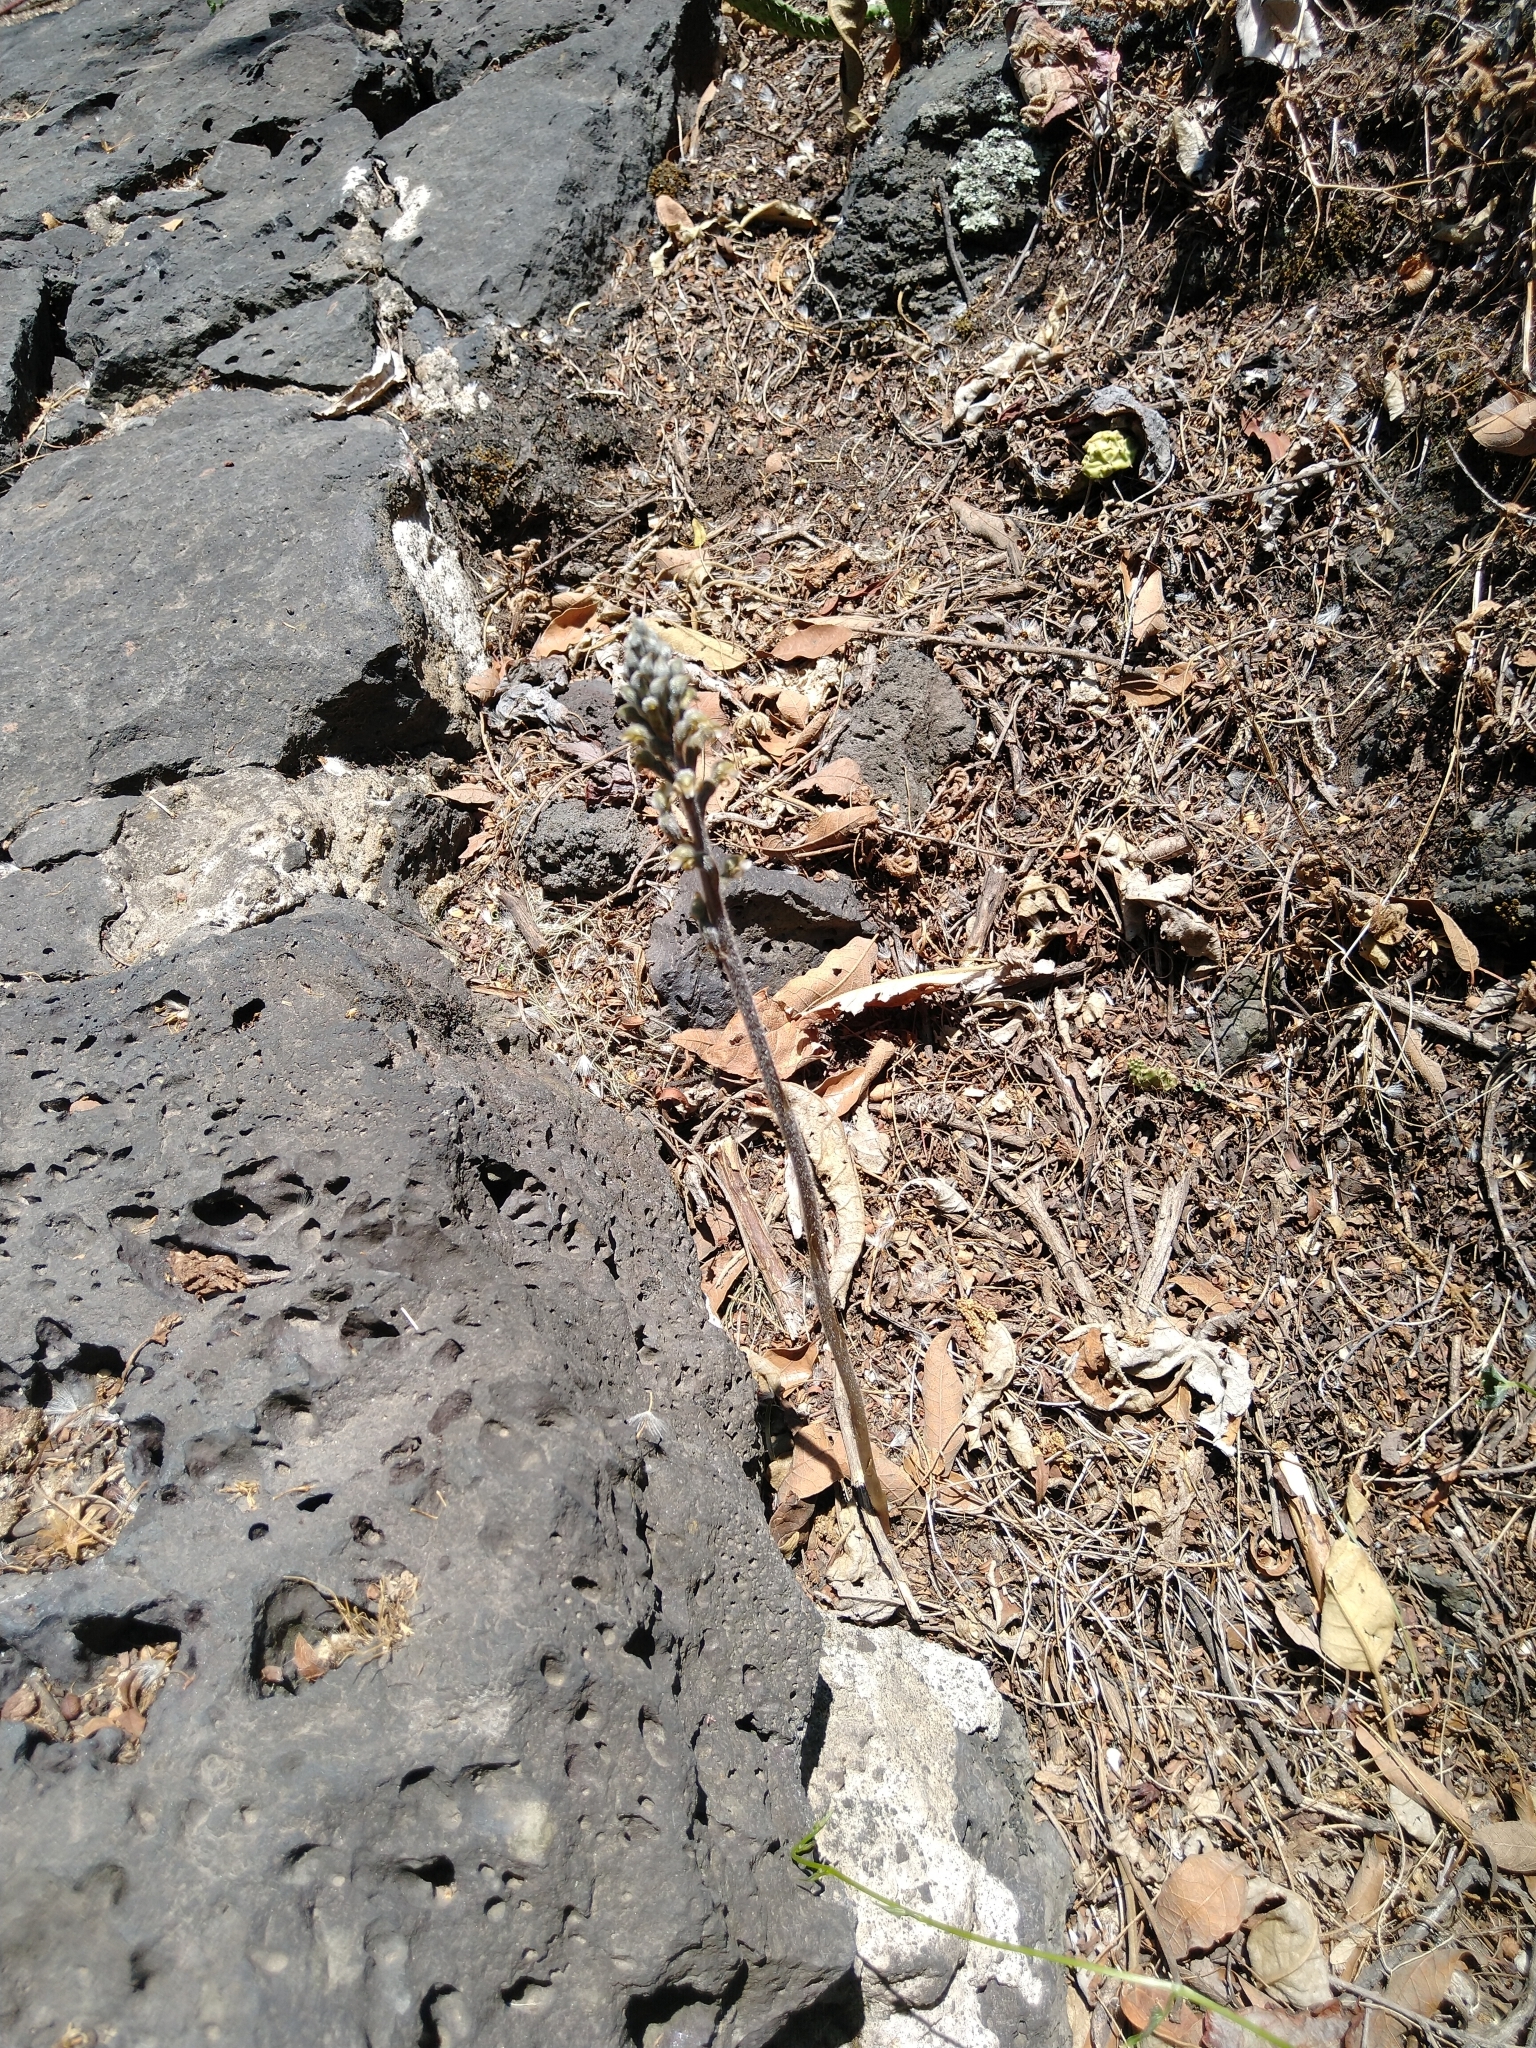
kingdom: Plantae
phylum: Tracheophyta
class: Liliopsida
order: Asparagales
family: Orchidaceae
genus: Sarcoglottis
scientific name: Sarcoglottis schaffneri
